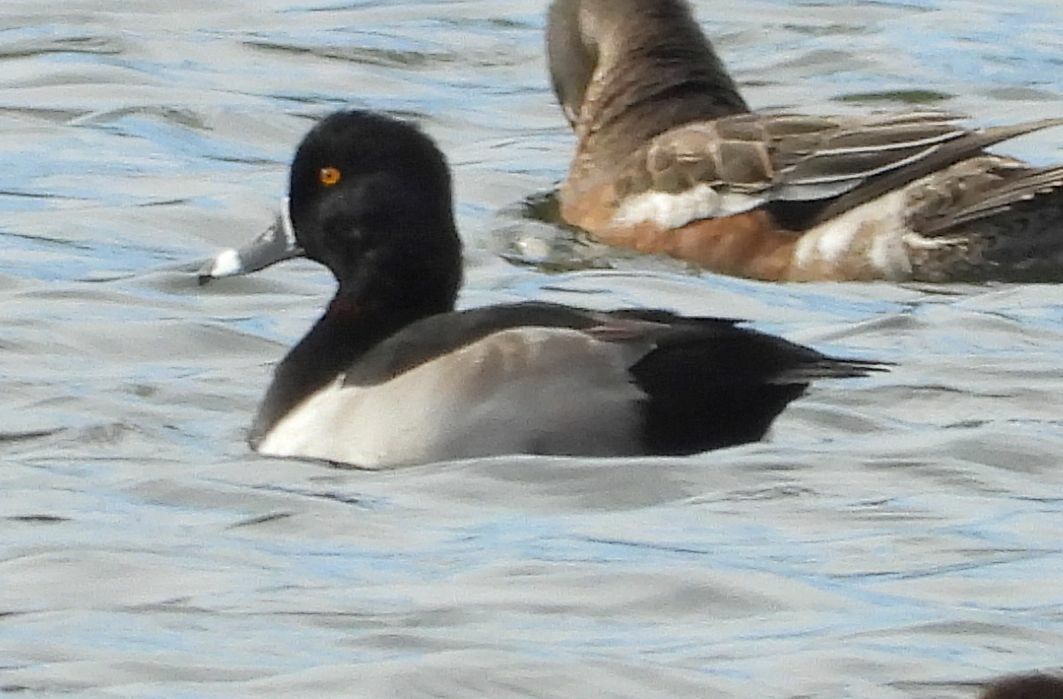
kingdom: Animalia
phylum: Chordata
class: Aves
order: Anseriformes
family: Anatidae
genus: Aythya
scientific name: Aythya collaris
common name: Ring-necked duck
